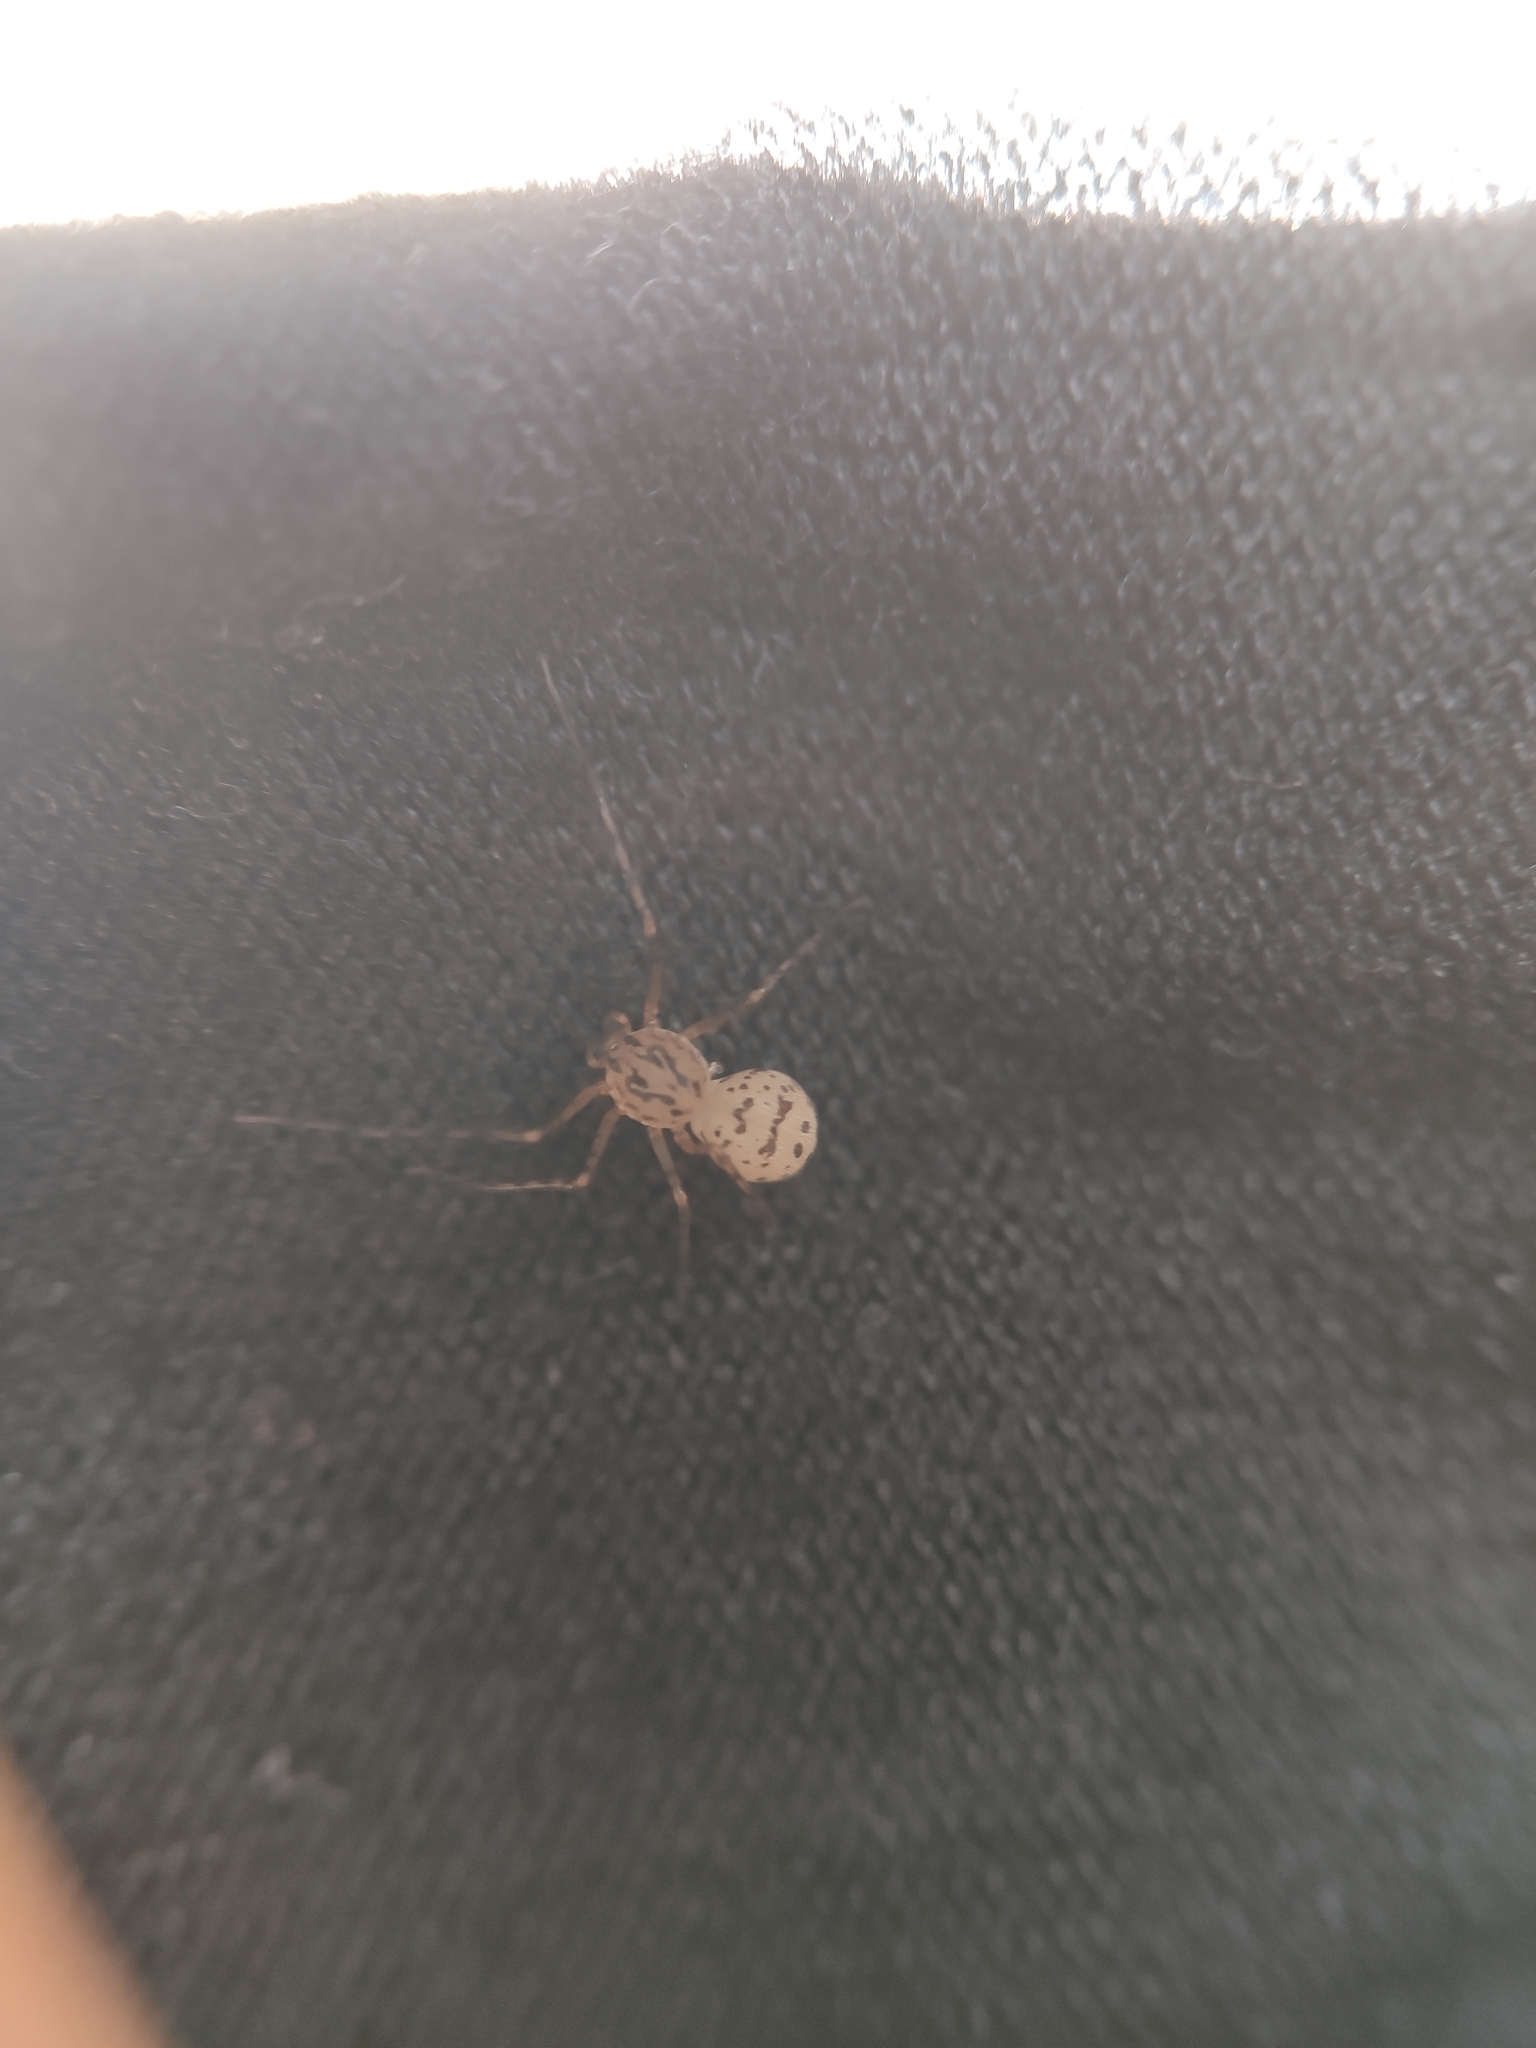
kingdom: Animalia
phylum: Arthropoda
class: Arachnida
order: Araneae
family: Scytodidae
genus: Scytodes
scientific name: Scytodes thoracica
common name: Spitting spider
